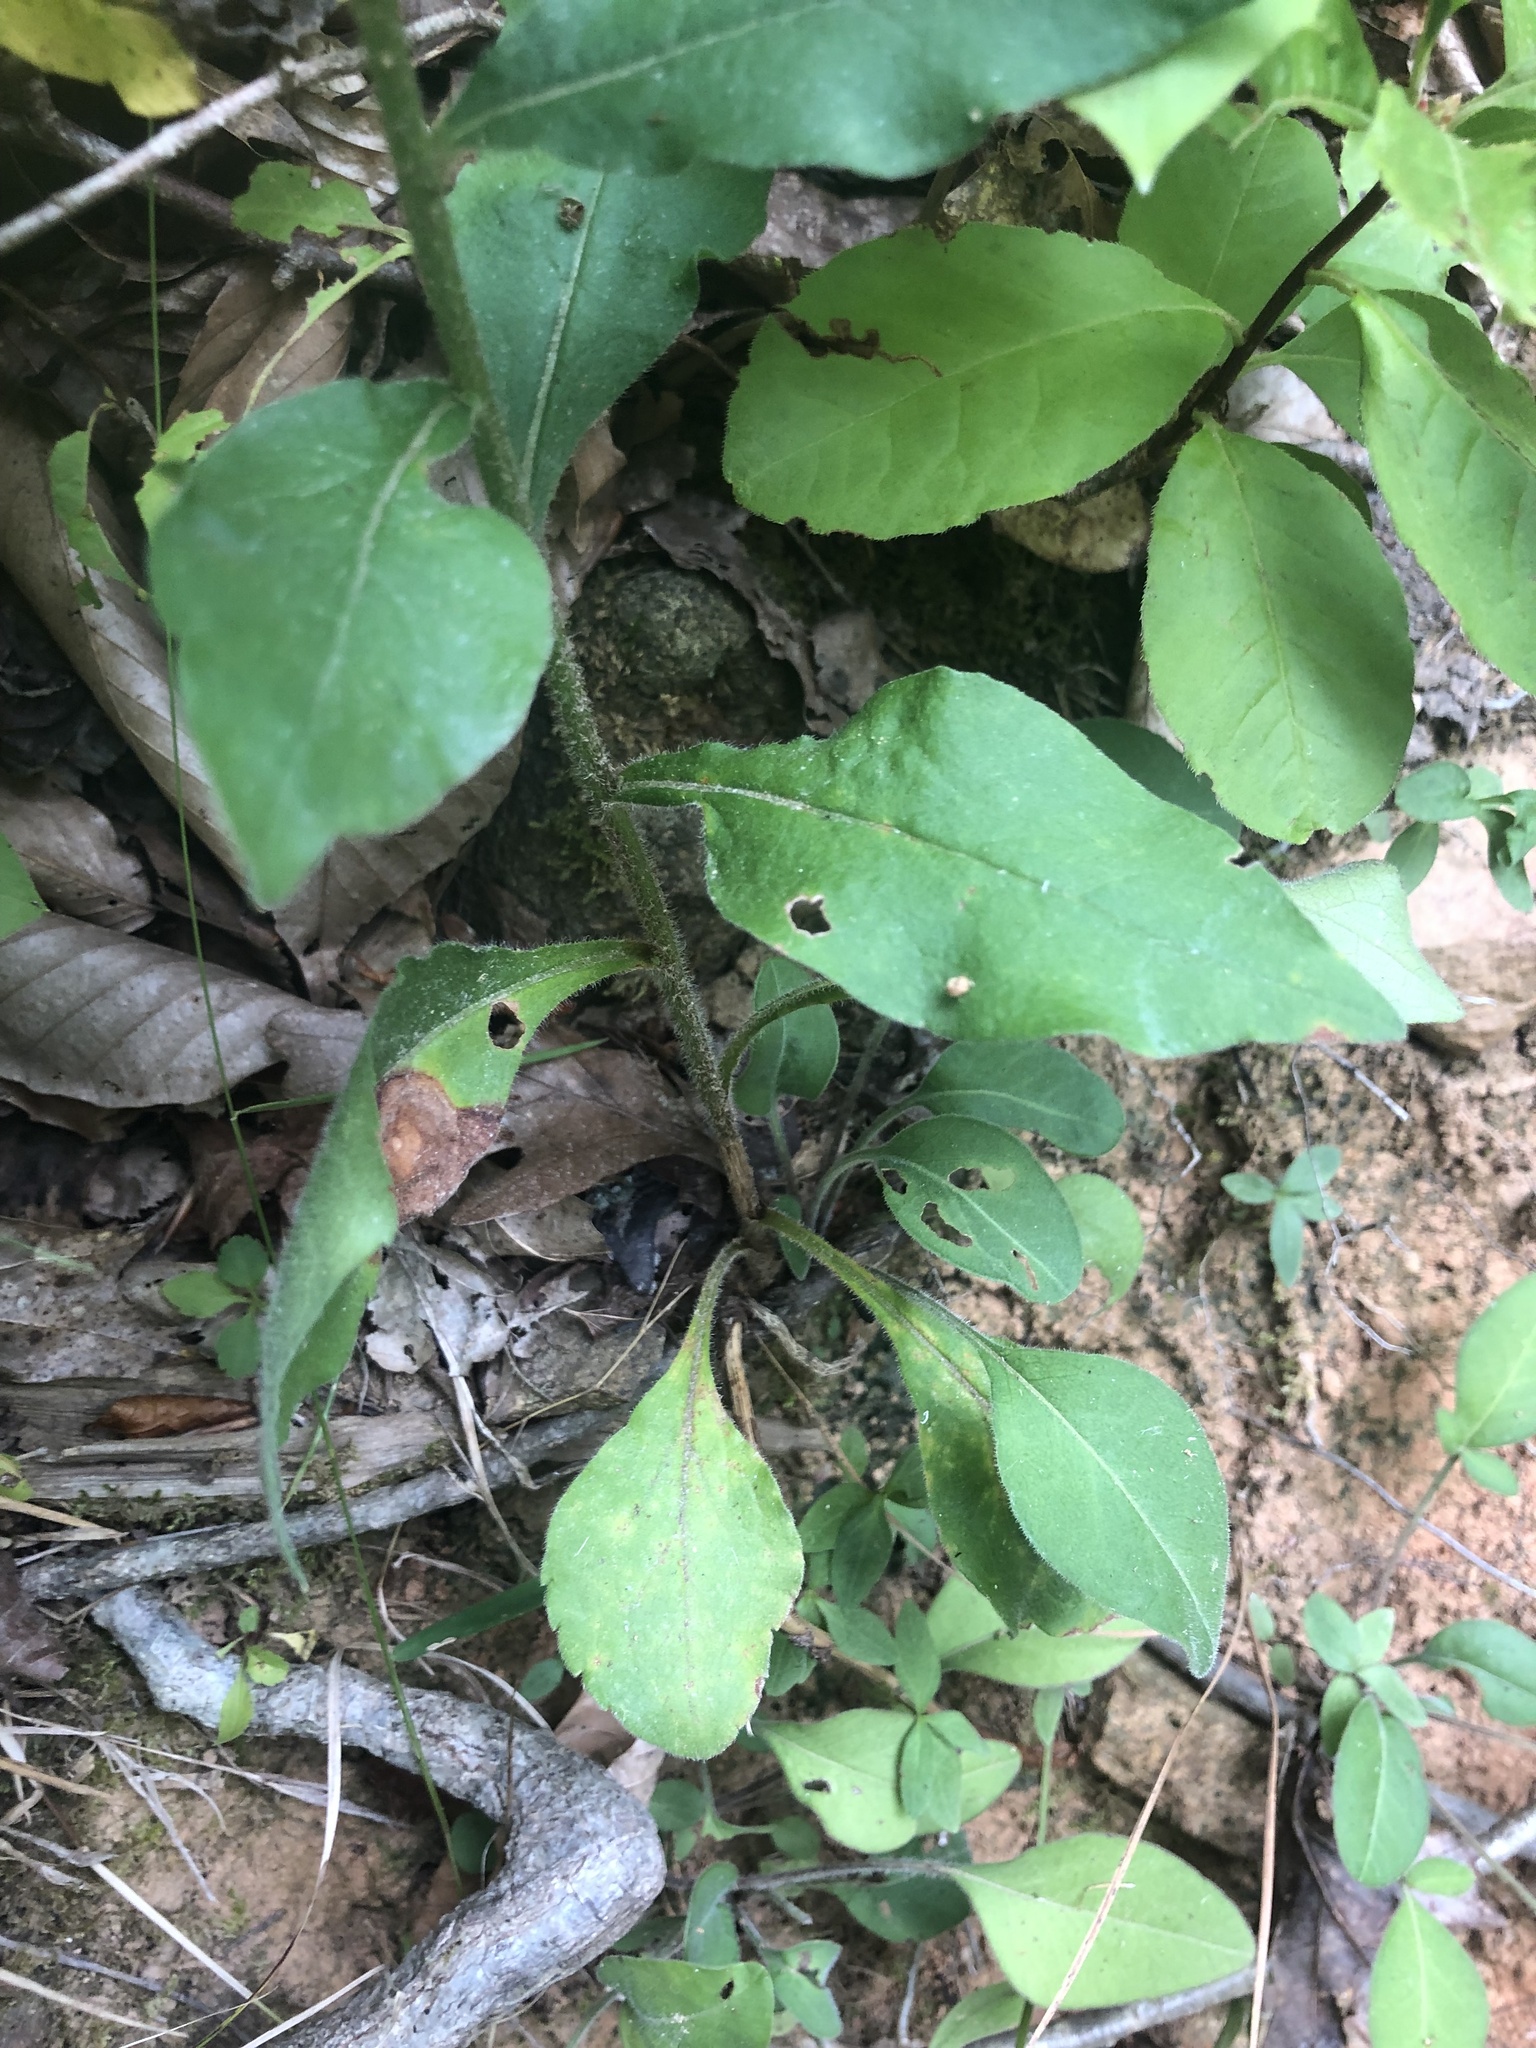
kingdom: Plantae
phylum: Tracheophyta
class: Magnoliopsida
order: Asterales
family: Asteraceae
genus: Solidago
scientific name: Solidago bicolor
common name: Silverrod
